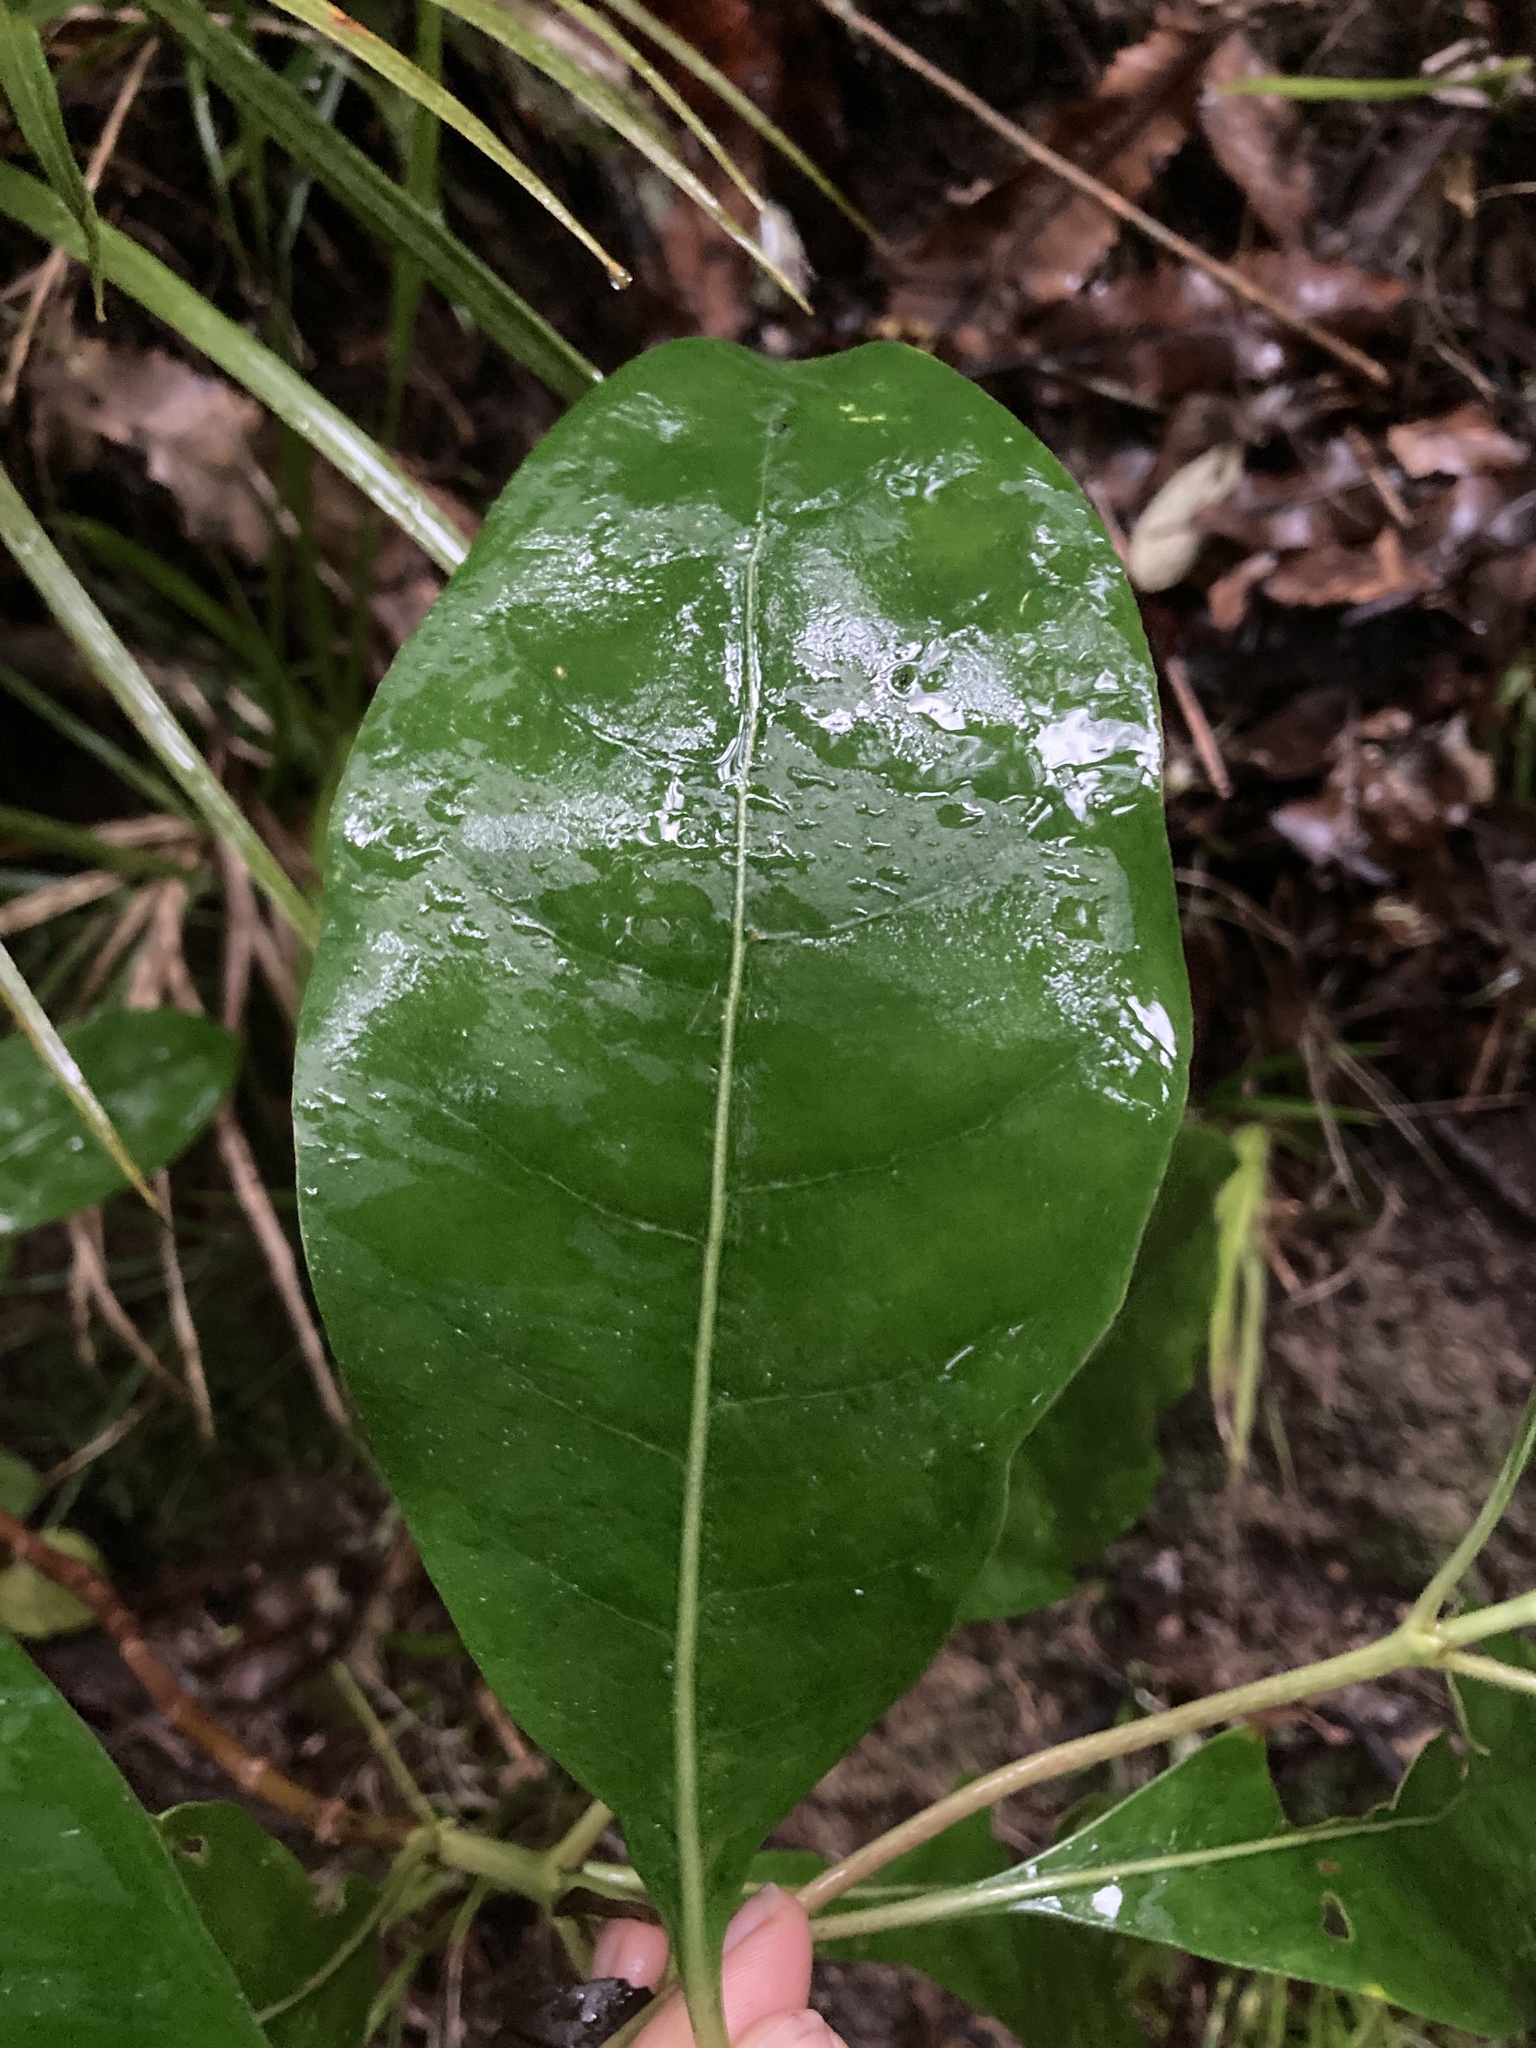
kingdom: Plantae
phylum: Tracheophyta
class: Magnoliopsida
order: Gentianales
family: Rubiaceae
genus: Coprosma
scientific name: Coprosma autumnalis
